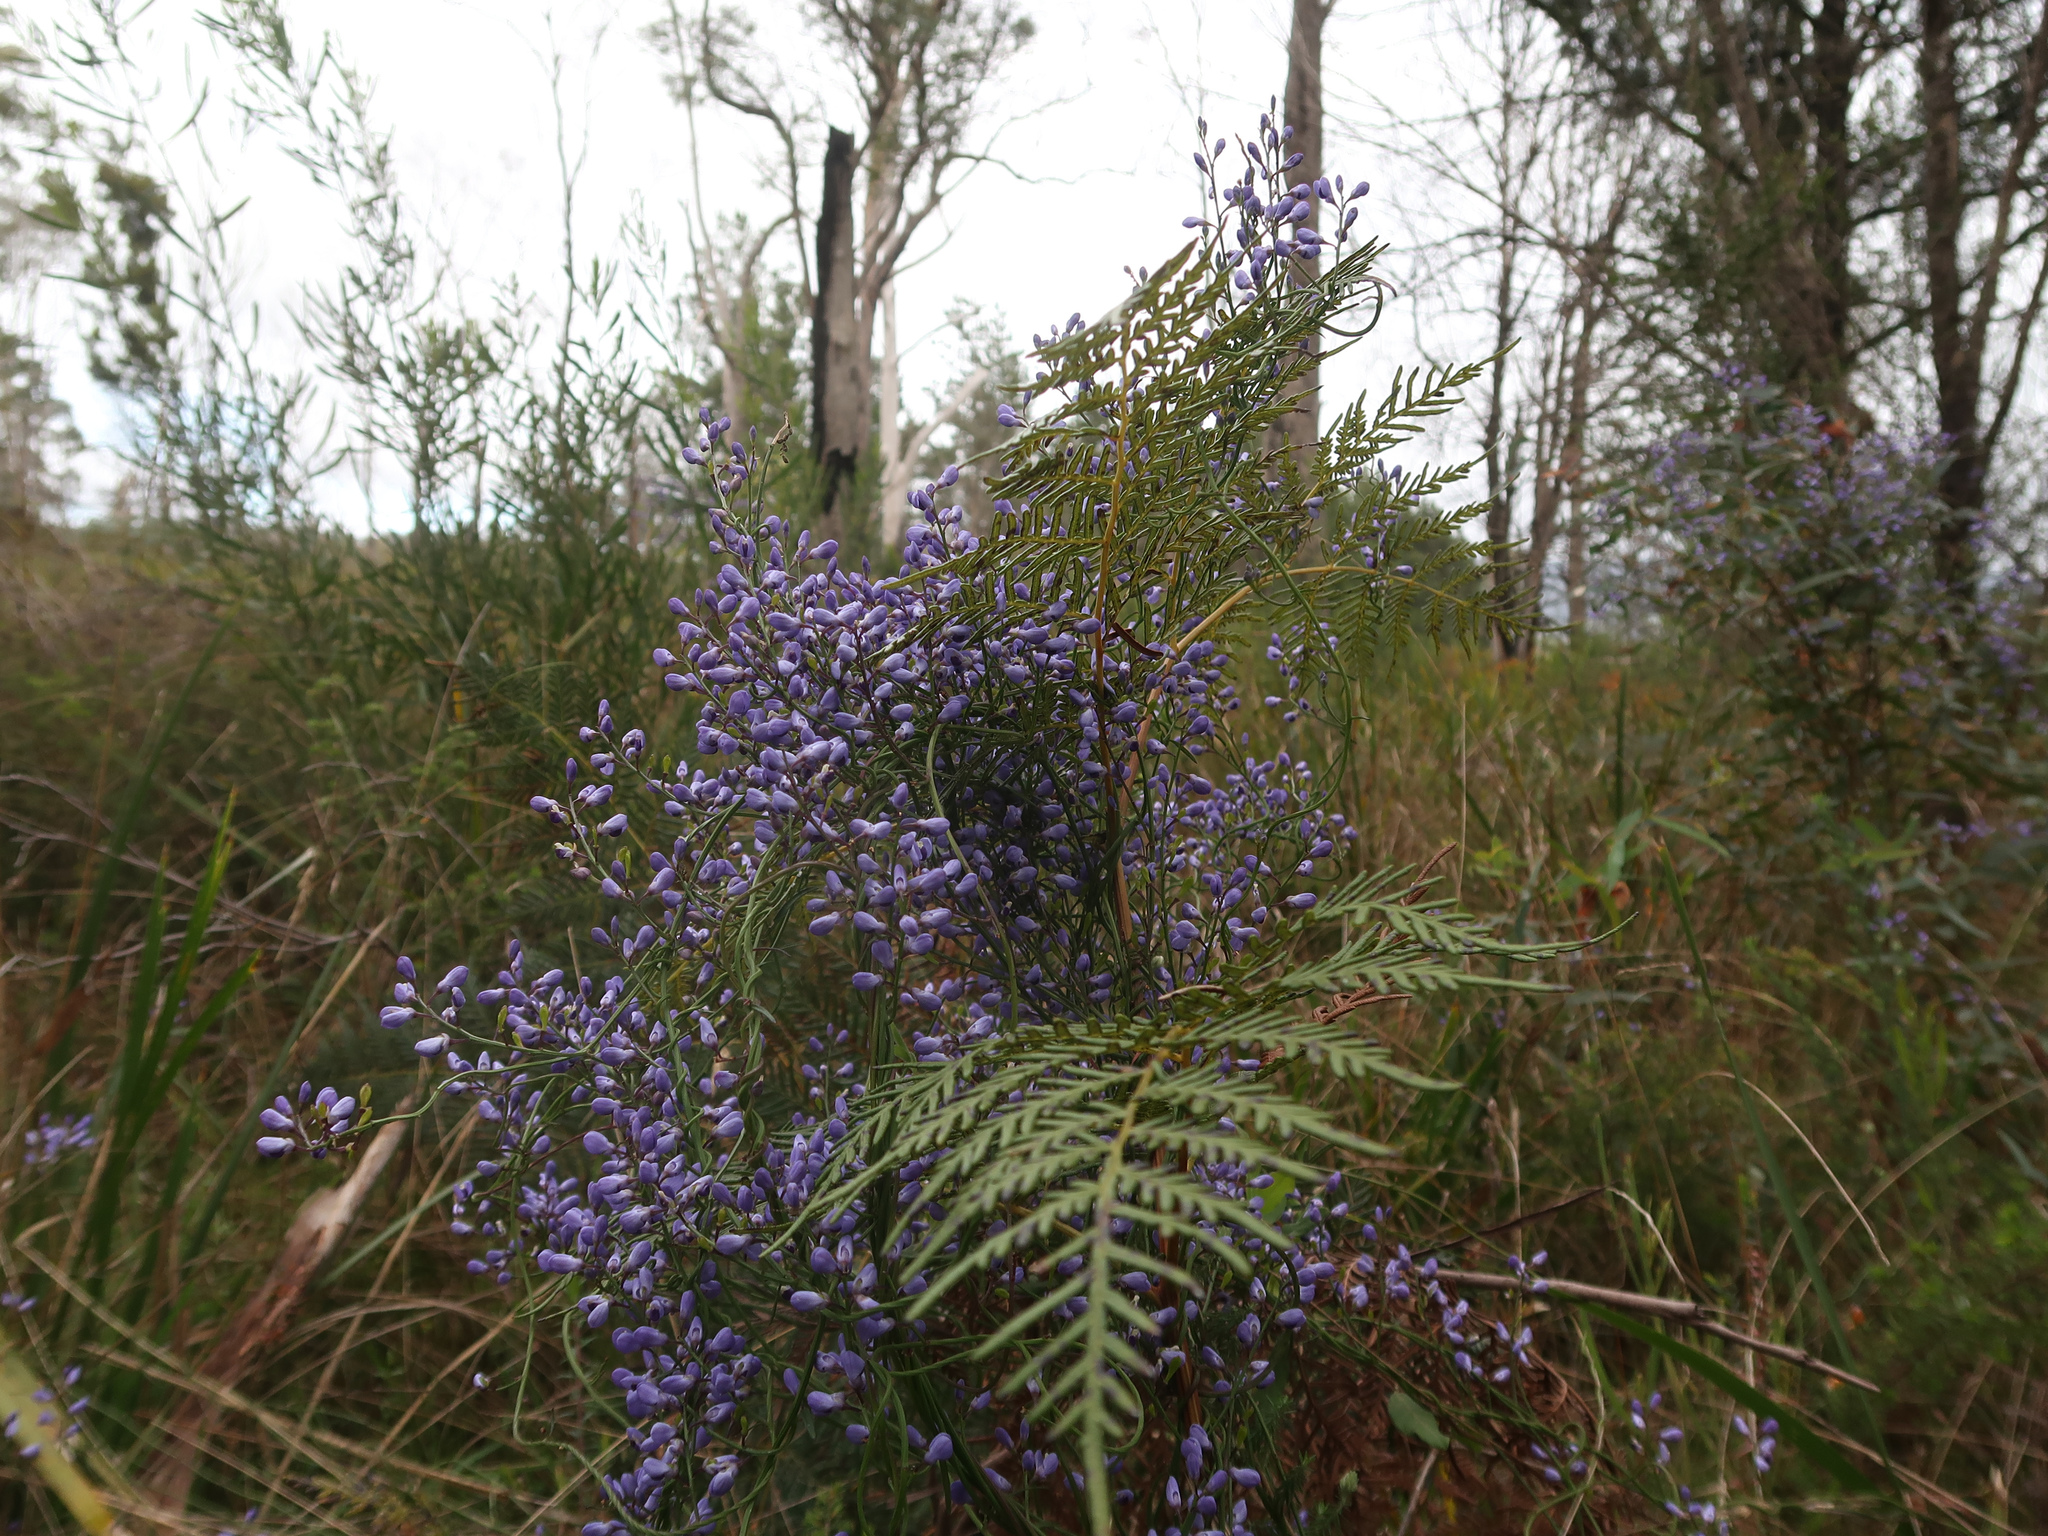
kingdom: Plantae
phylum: Tracheophyta
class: Magnoliopsida
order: Fabales
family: Polygalaceae
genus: Comesperma
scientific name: Comesperma volubile
